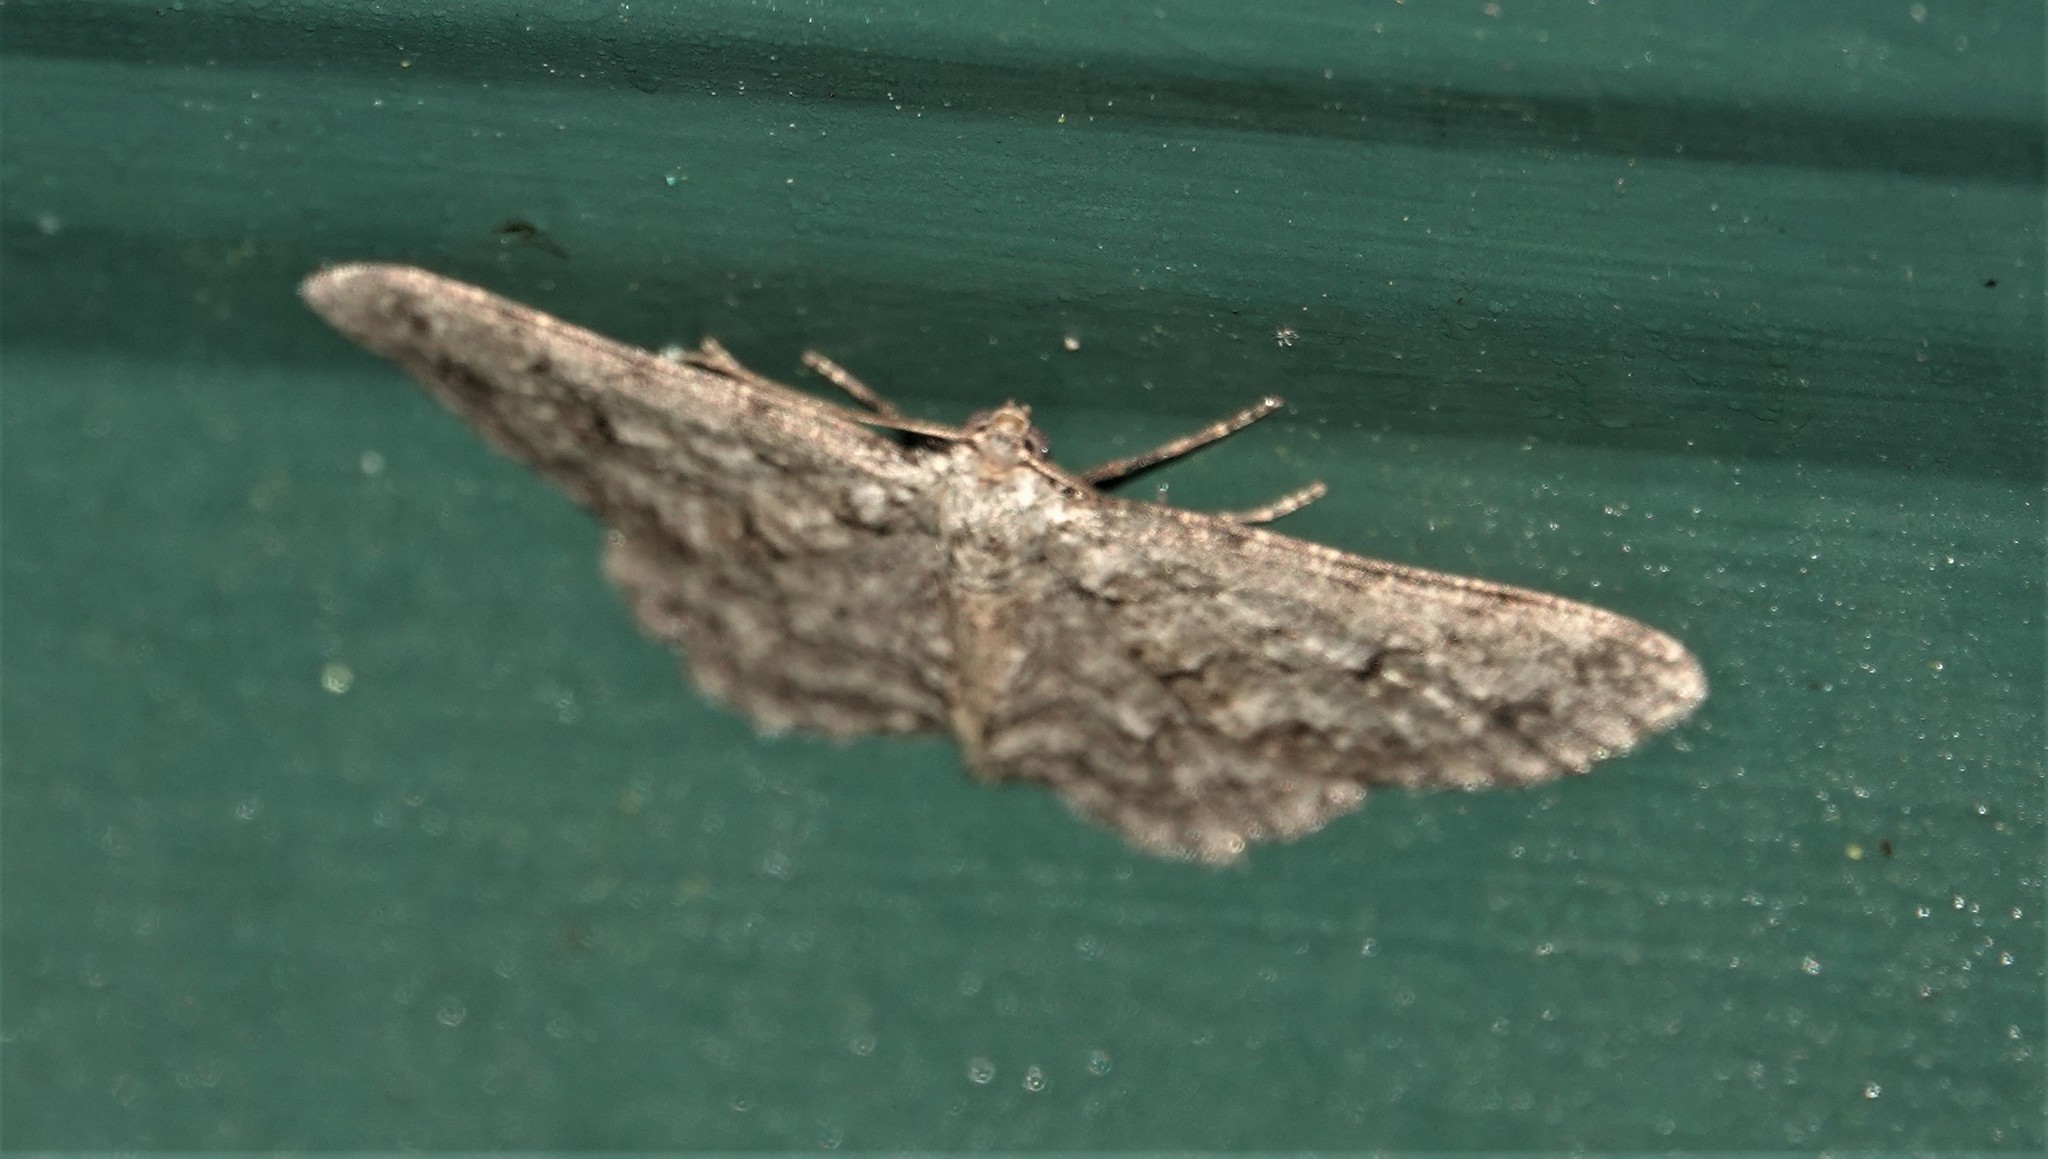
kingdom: Animalia
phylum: Arthropoda
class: Insecta
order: Lepidoptera
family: Geometridae
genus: Ectropis
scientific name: Ectropis crepuscularia
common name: Engrailed
